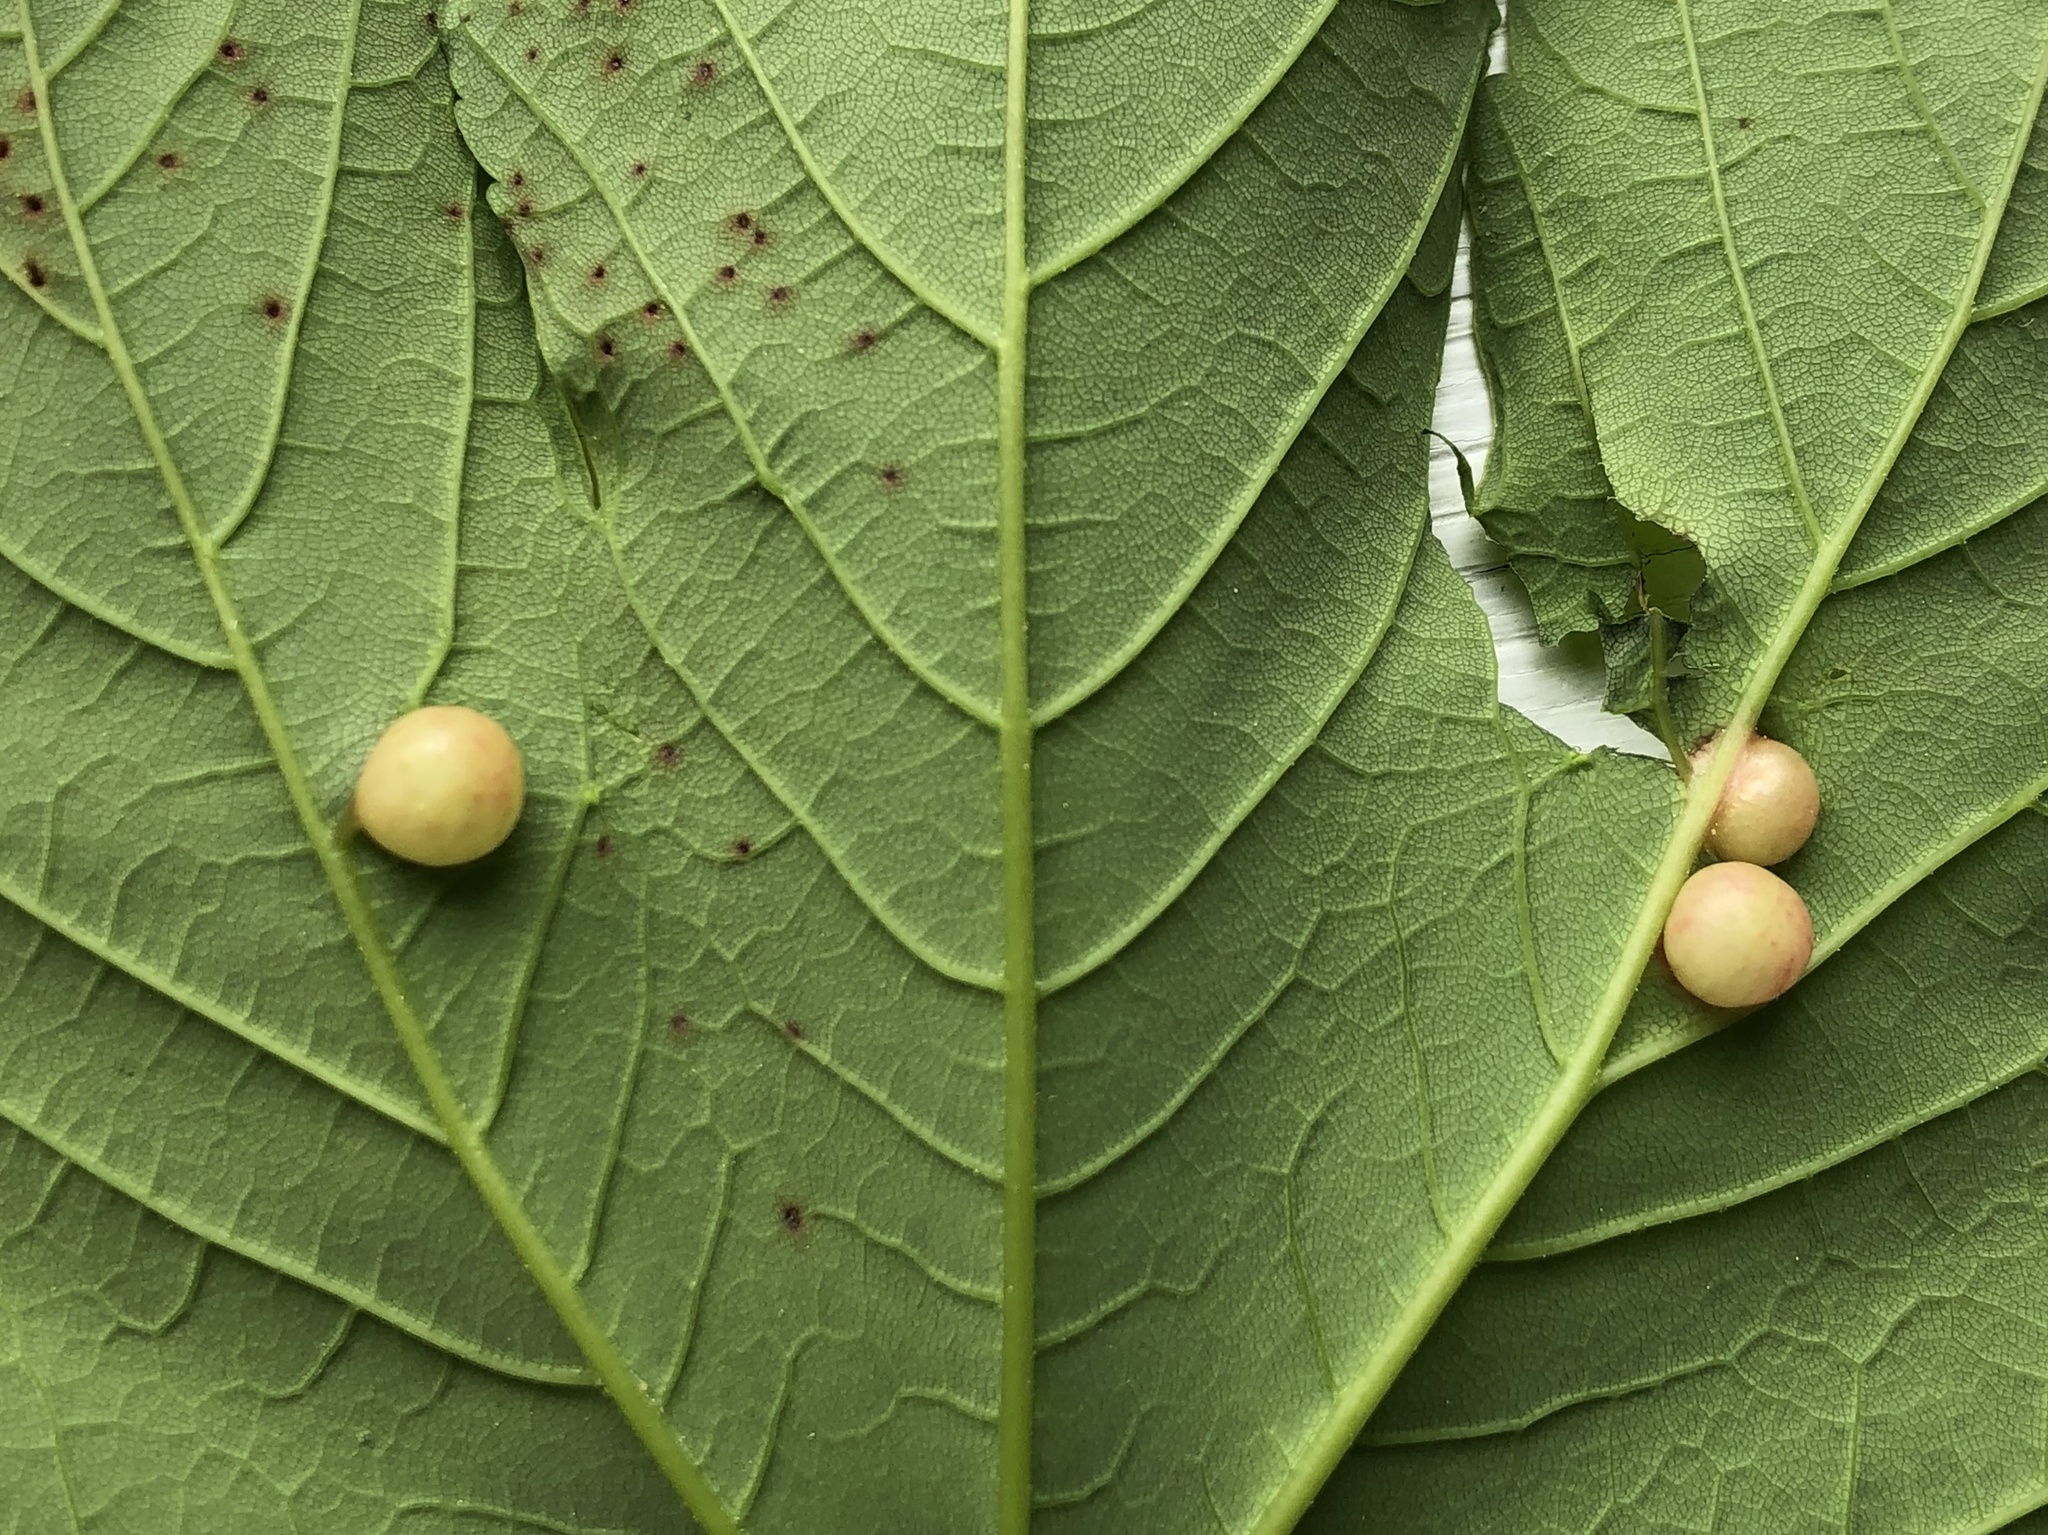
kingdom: Animalia
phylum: Arthropoda
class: Insecta
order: Hymenoptera
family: Cynipidae
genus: Pediaspis
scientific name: Pediaspis aceris
